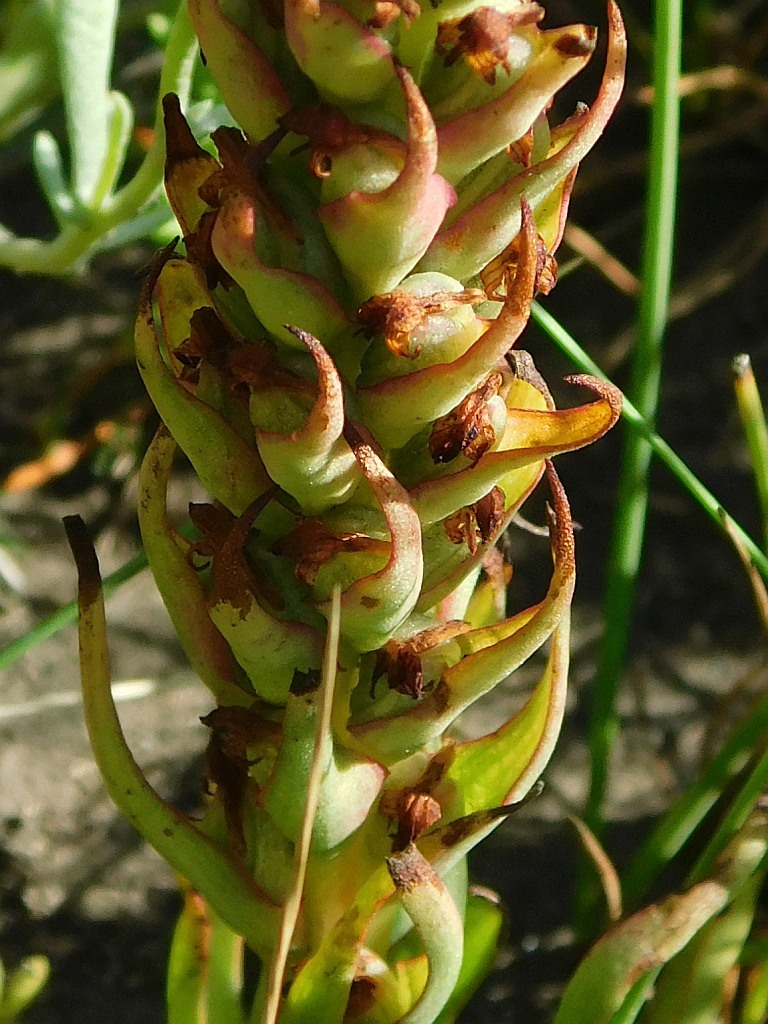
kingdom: Plantae
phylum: Tracheophyta
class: Liliopsida
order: Asparagales
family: Orchidaceae
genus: Disa
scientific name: Disa bracteata
